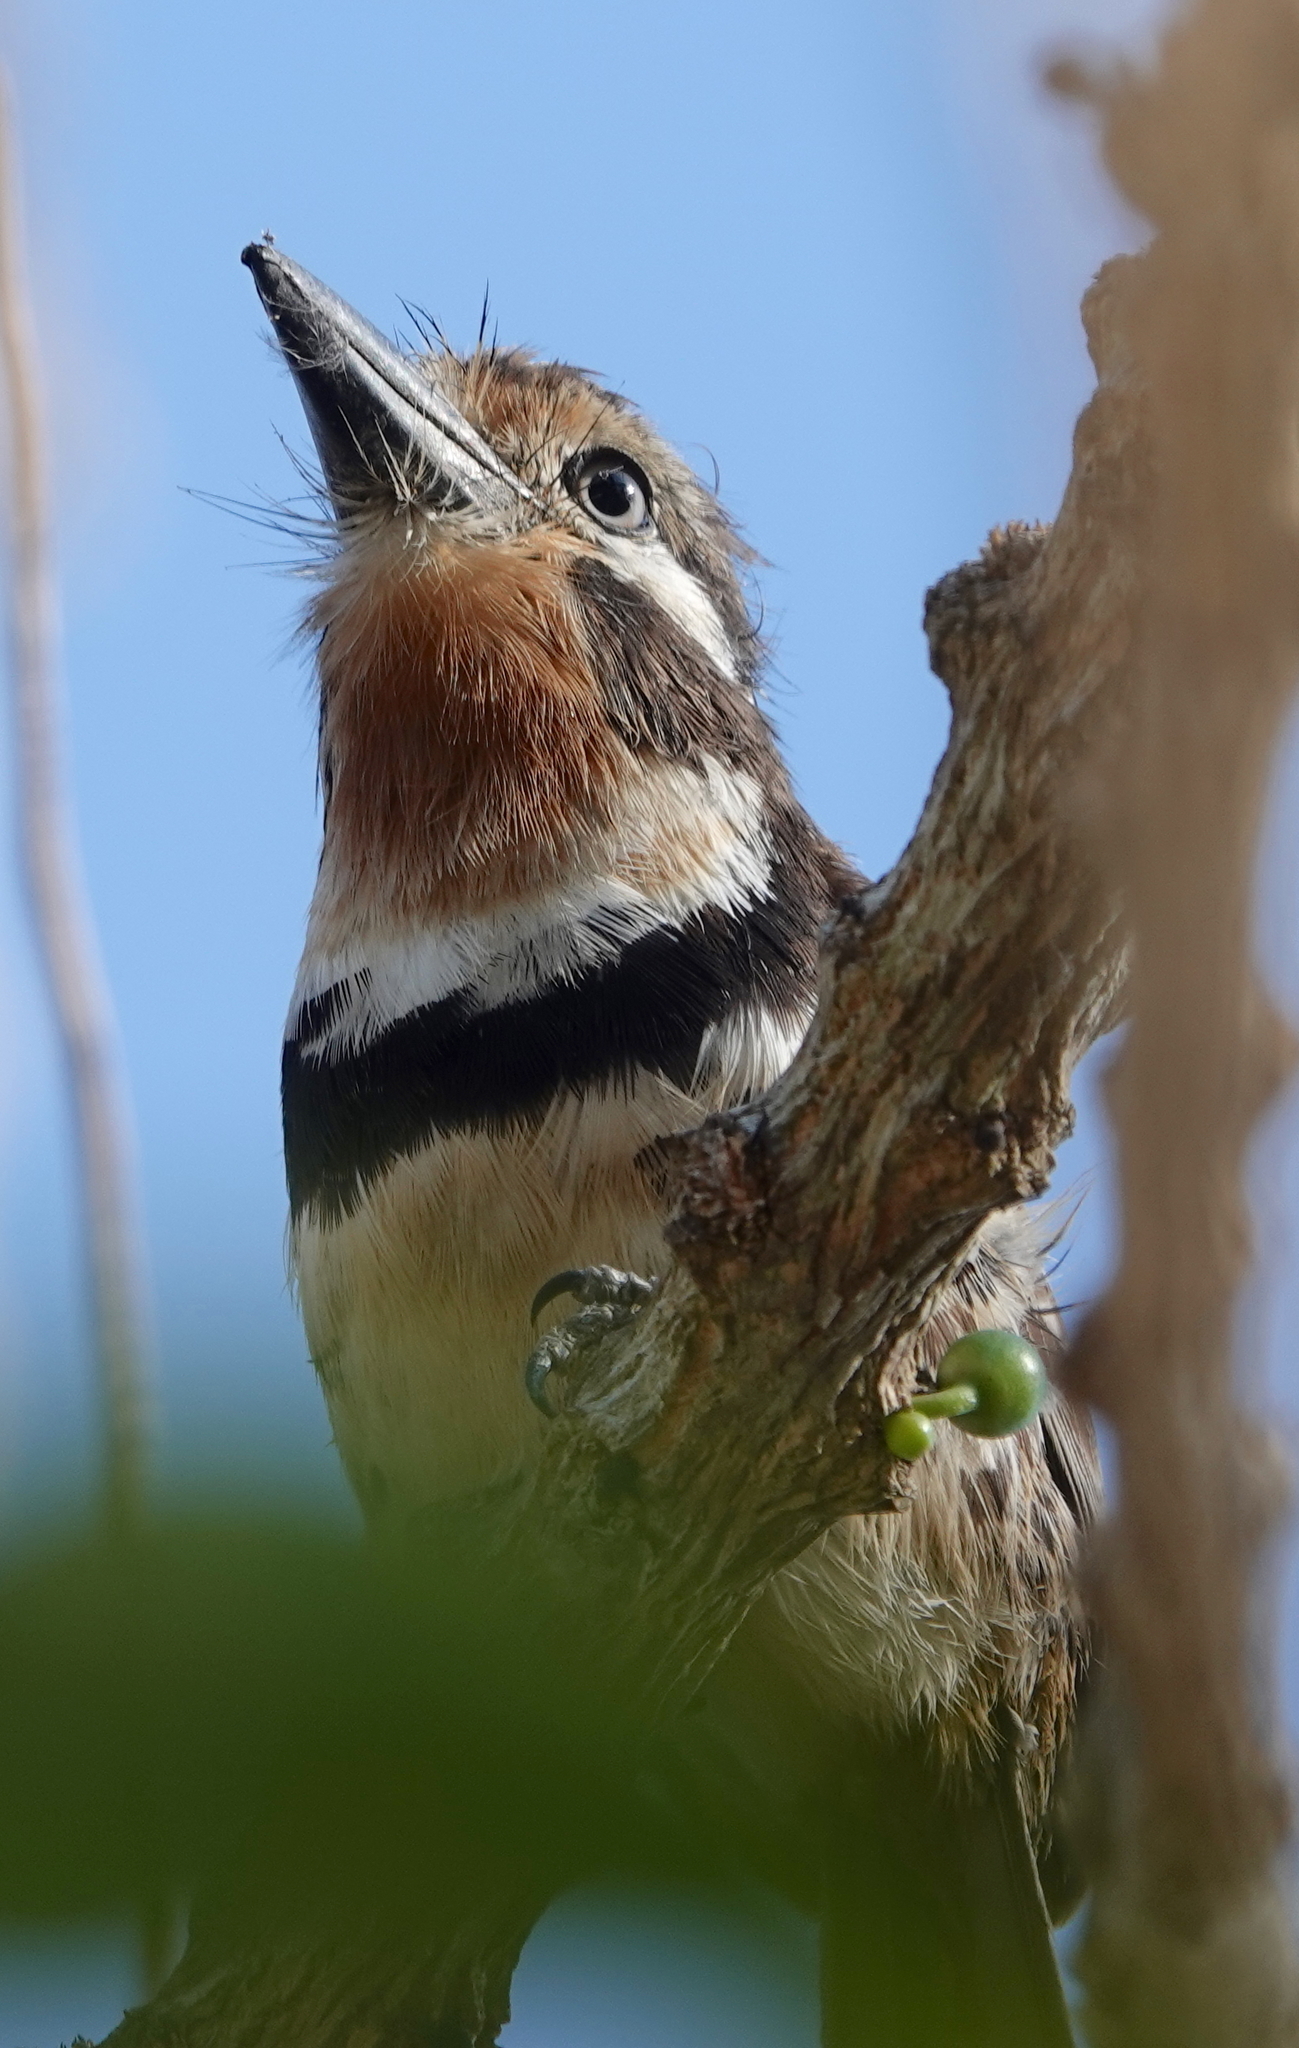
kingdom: Animalia
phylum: Chordata
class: Aves
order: Piciformes
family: Bucconidae
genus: Hypnelus
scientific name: Hypnelus ruficollis
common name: Russet-throated puffbird
